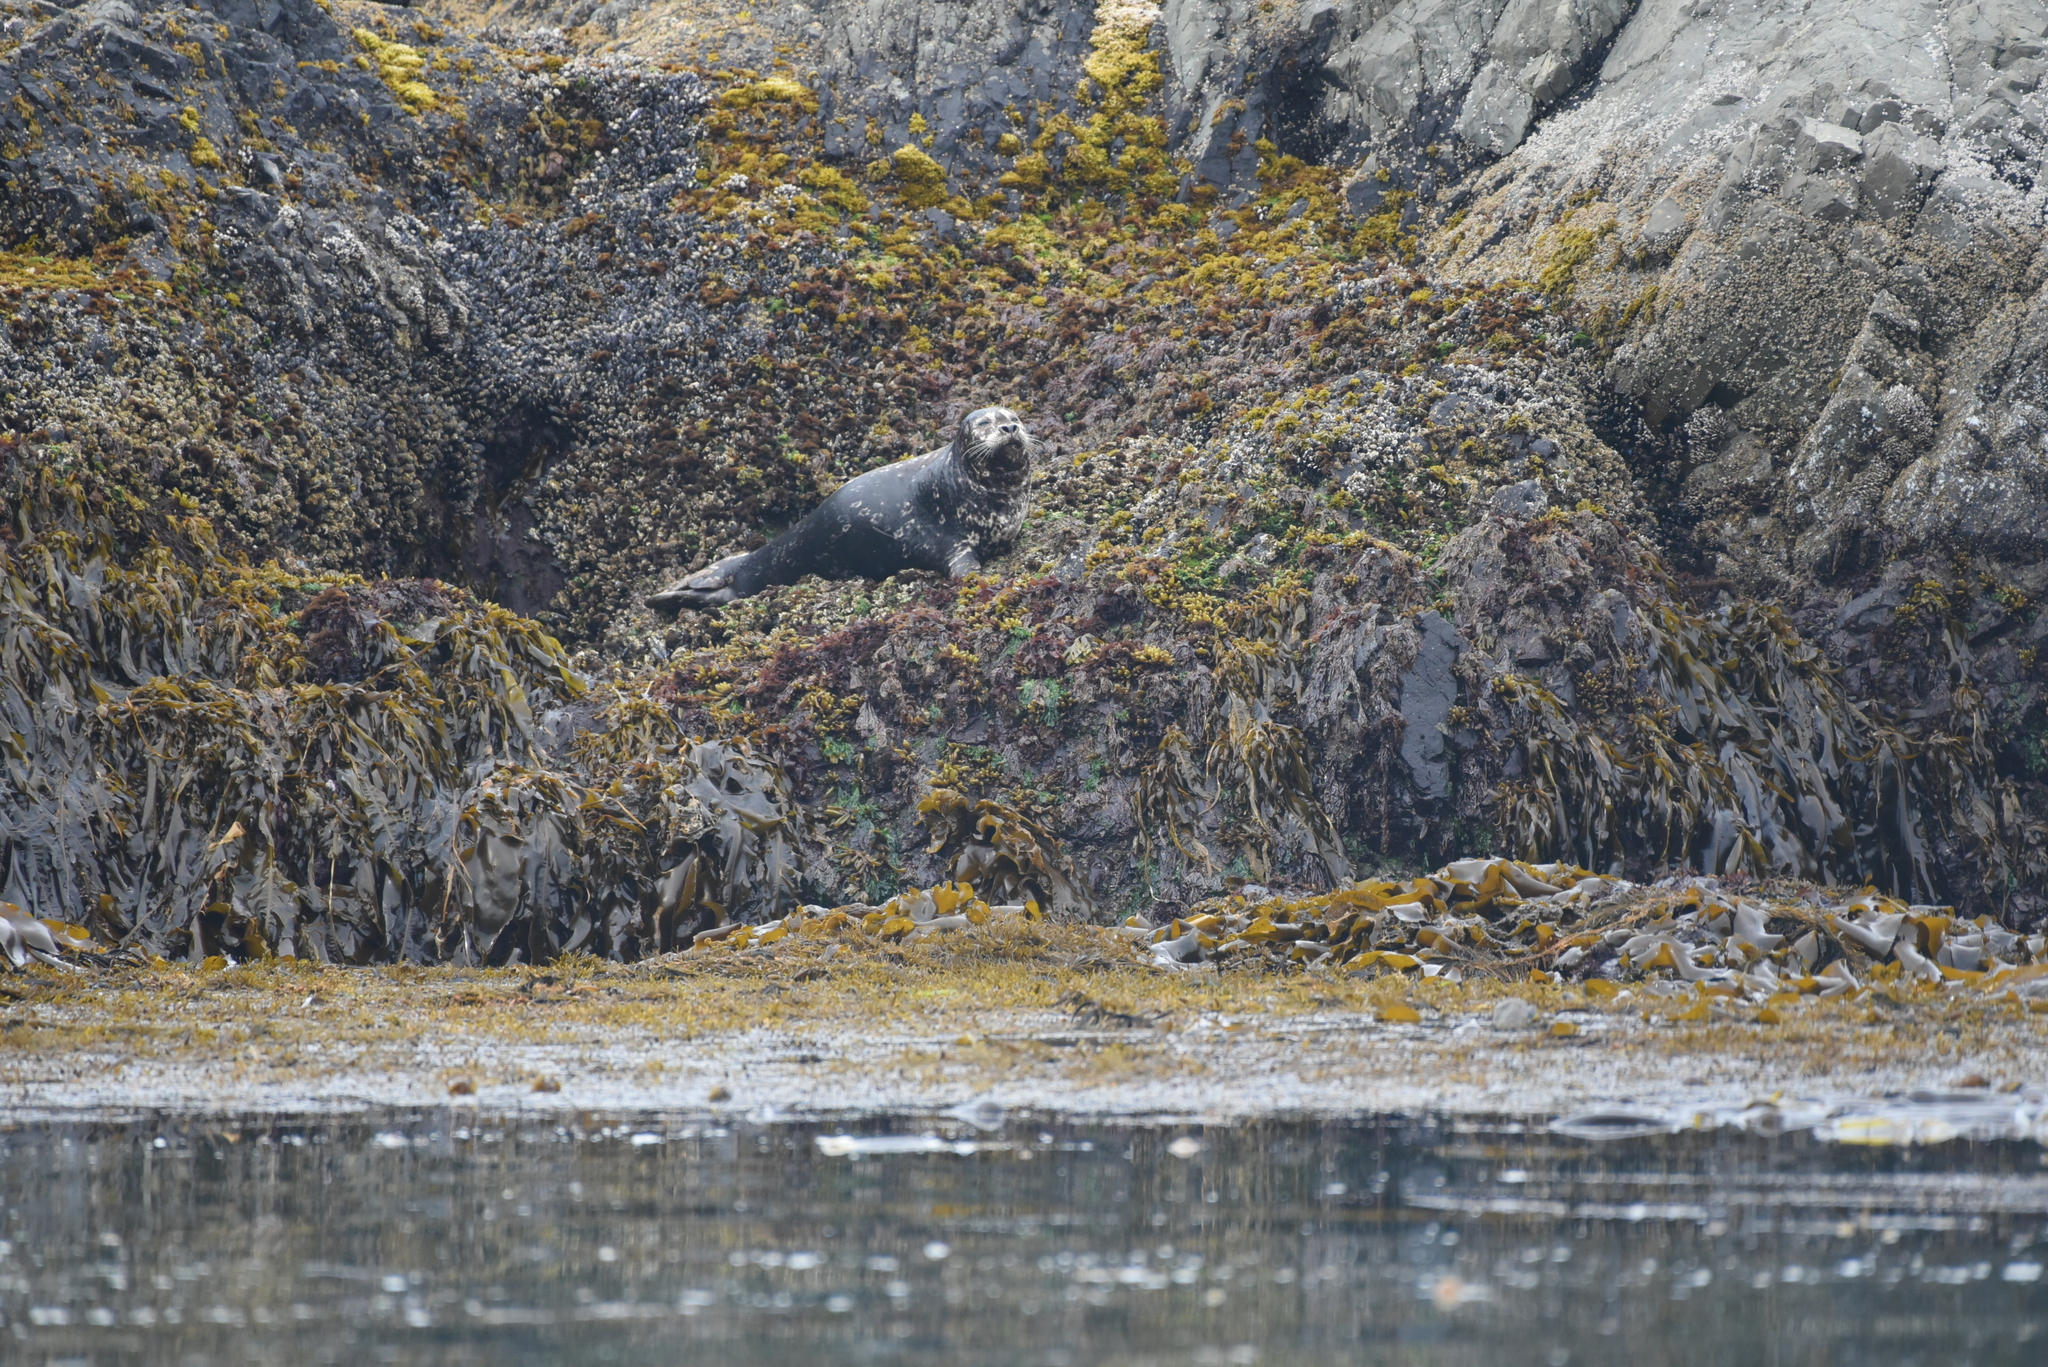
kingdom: Animalia
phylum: Chordata
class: Mammalia
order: Carnivora
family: Phocidae
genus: Phoca
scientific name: Phoca vitulina
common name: Harbor seal
